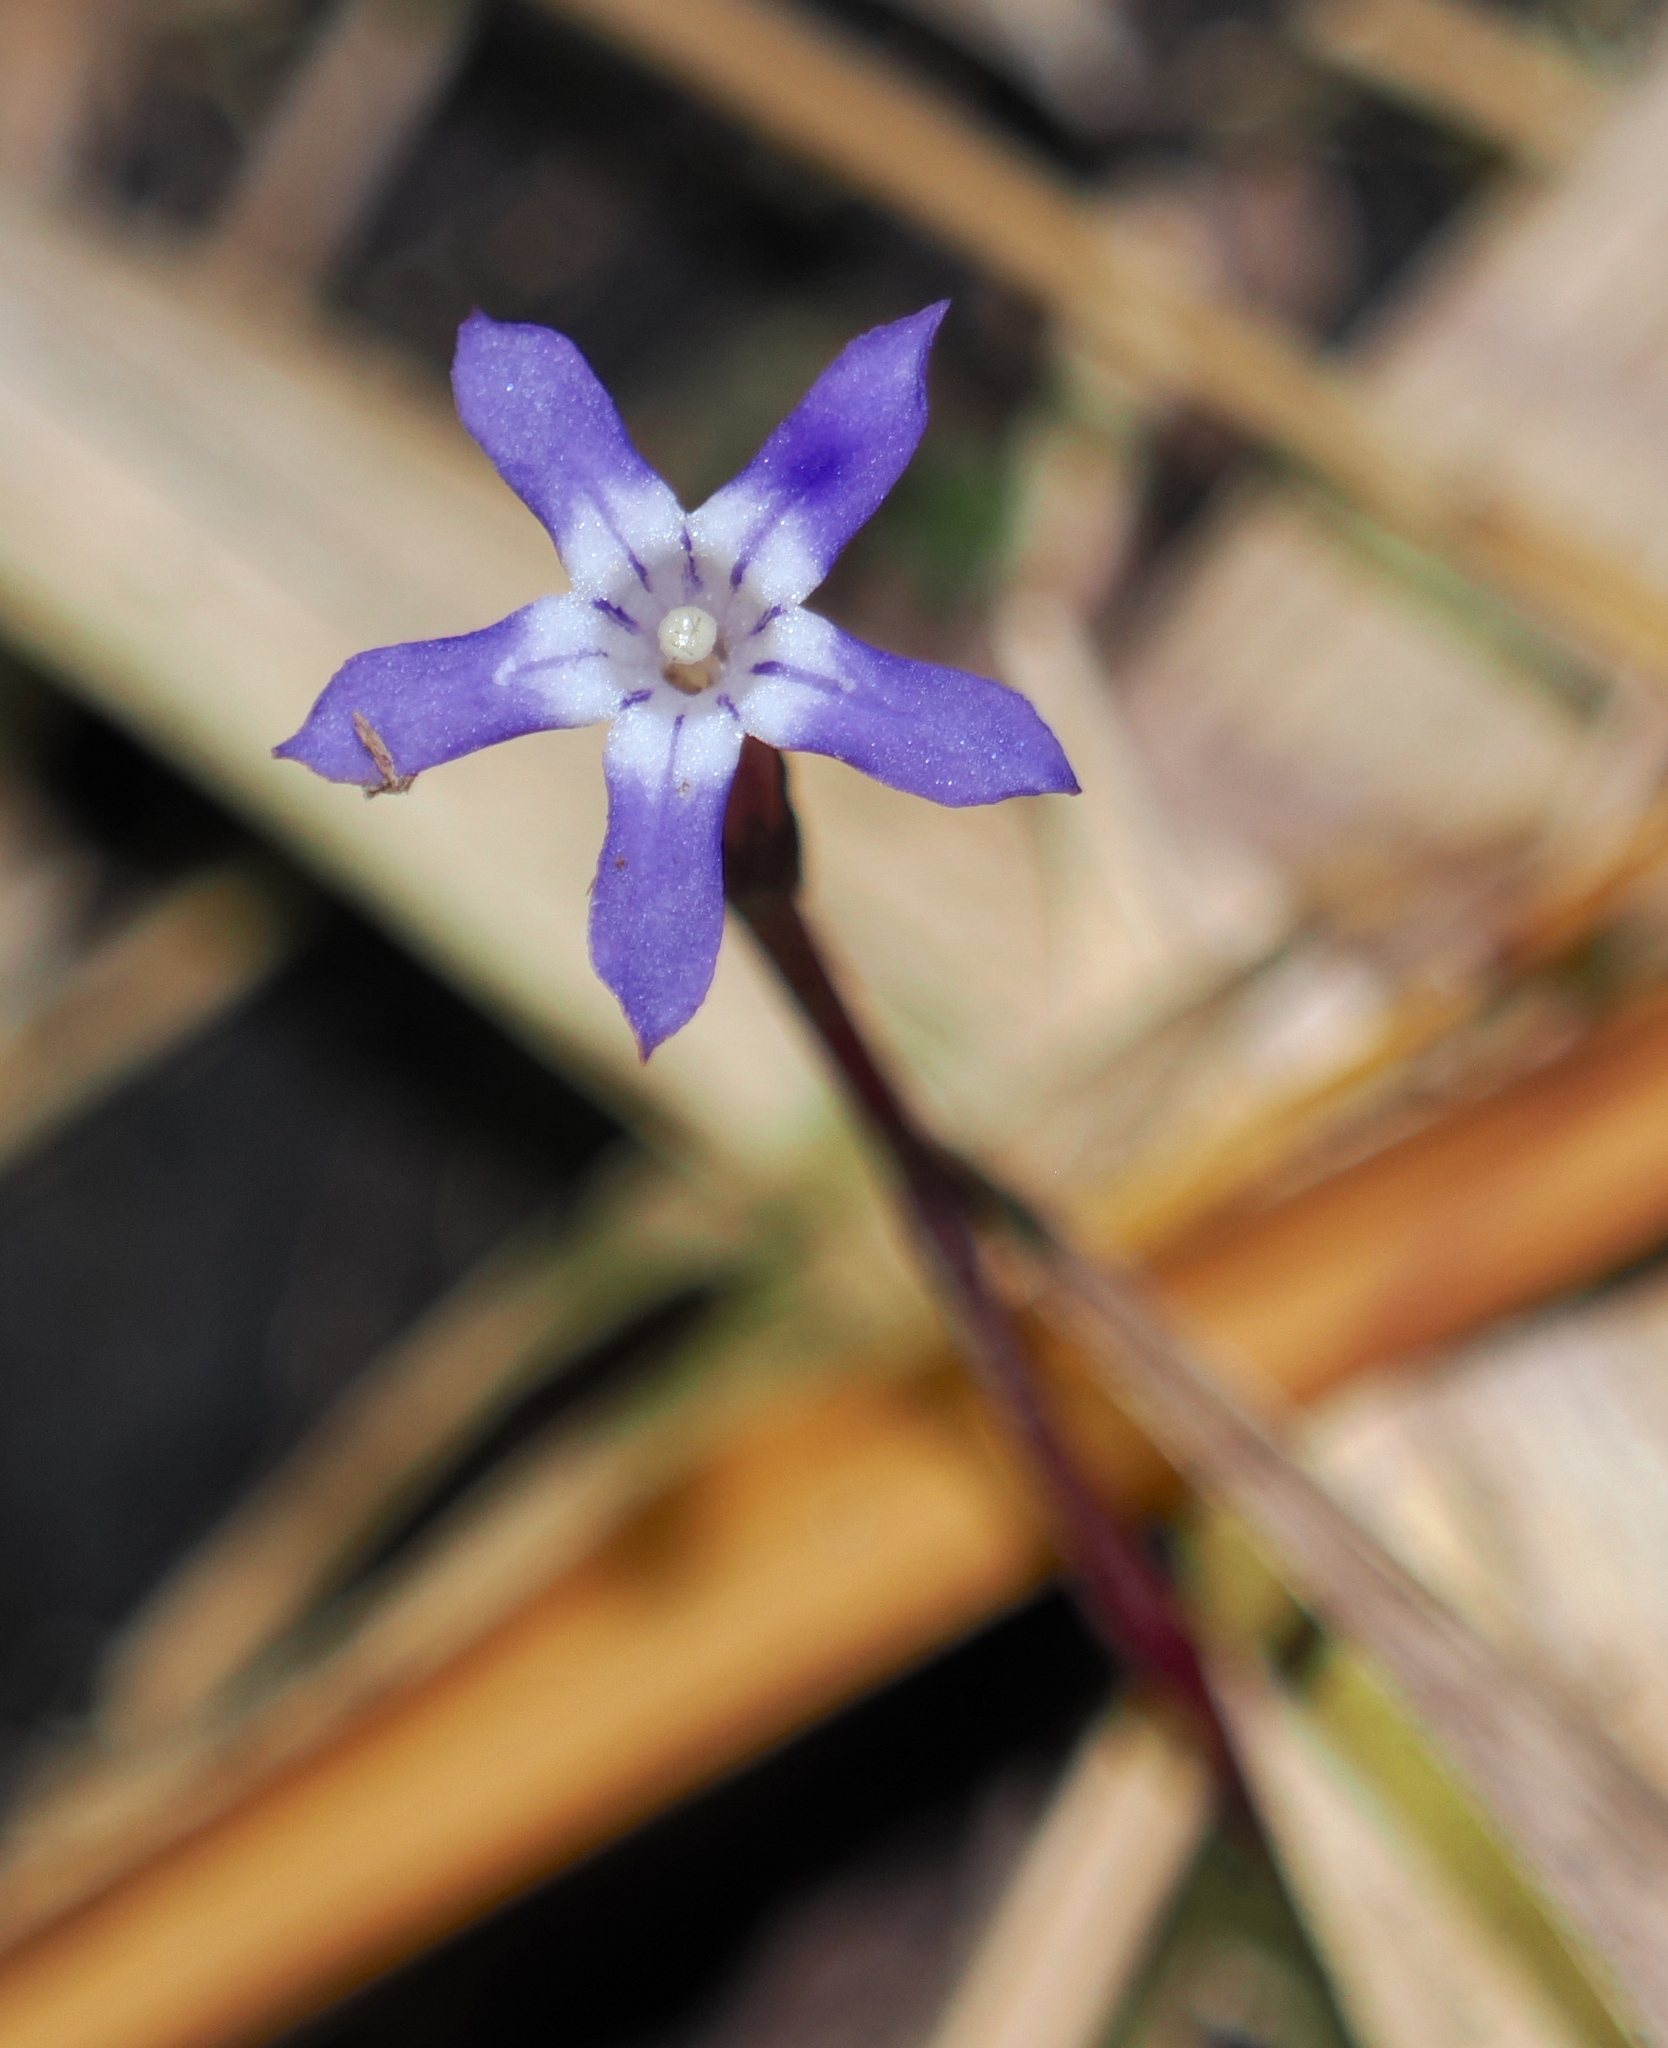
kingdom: Plantae
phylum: Tracheophyta
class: Magnoliopsida
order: Gentianales
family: Gentianaceae
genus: Voyria
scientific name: Voyria pittieri
